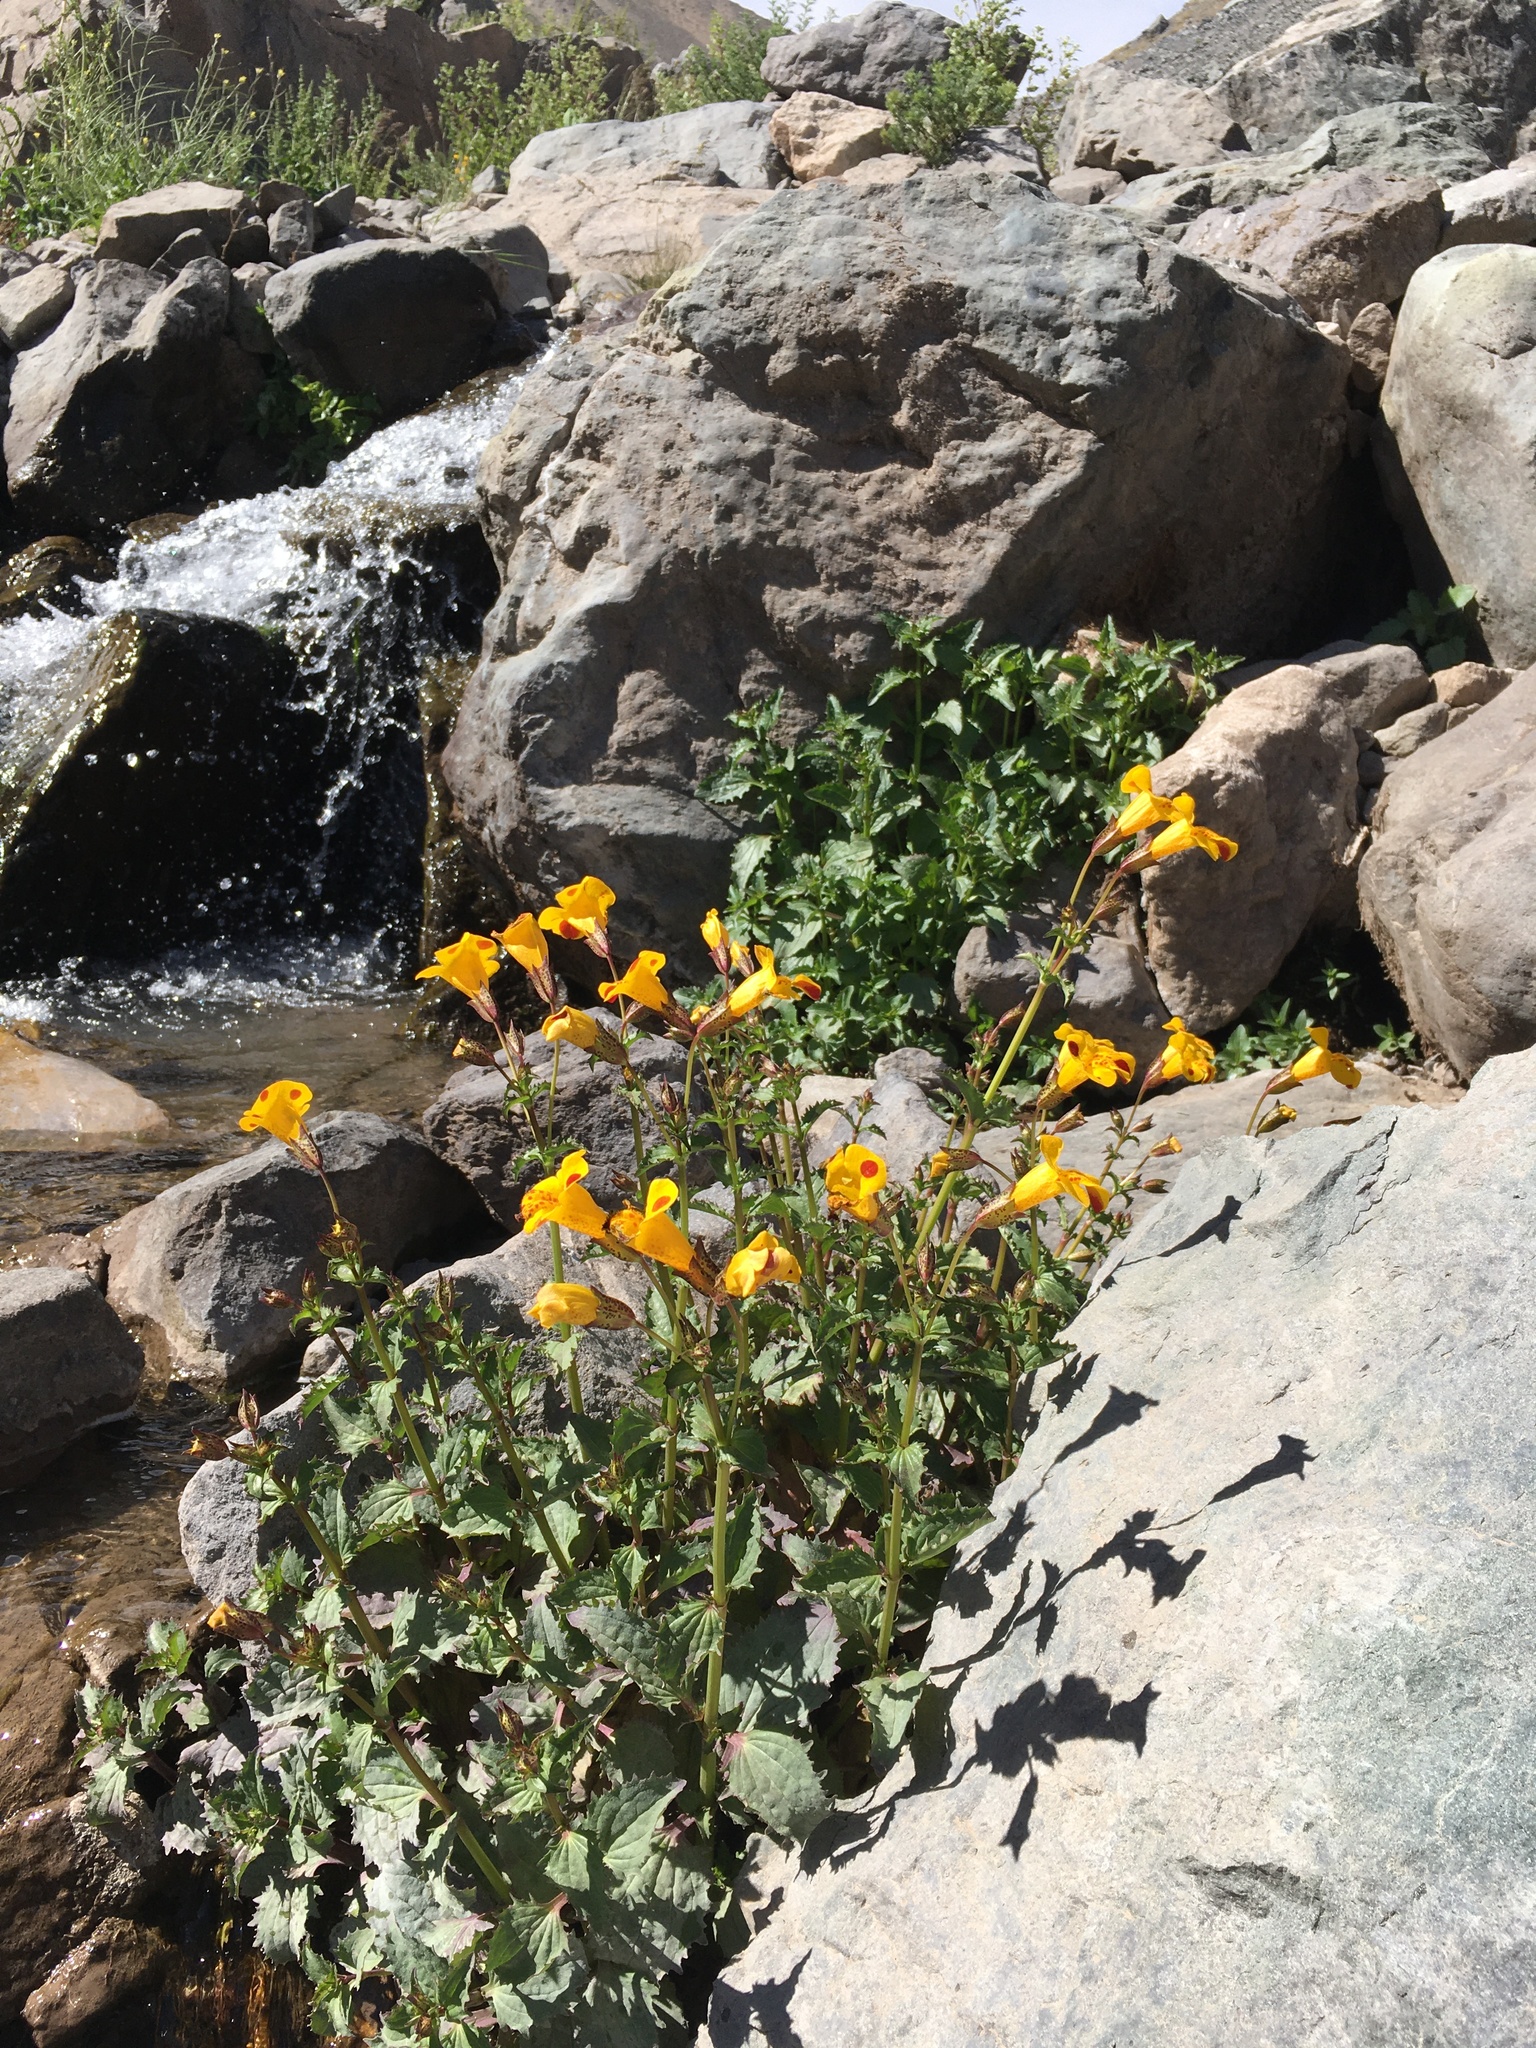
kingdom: Plantae
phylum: Tracheophyta
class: Magnoliopsida
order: Lamiales
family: Phrymaceae
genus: Erythranthe
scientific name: Erythranthe lutea
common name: Yellow monkey-flower
